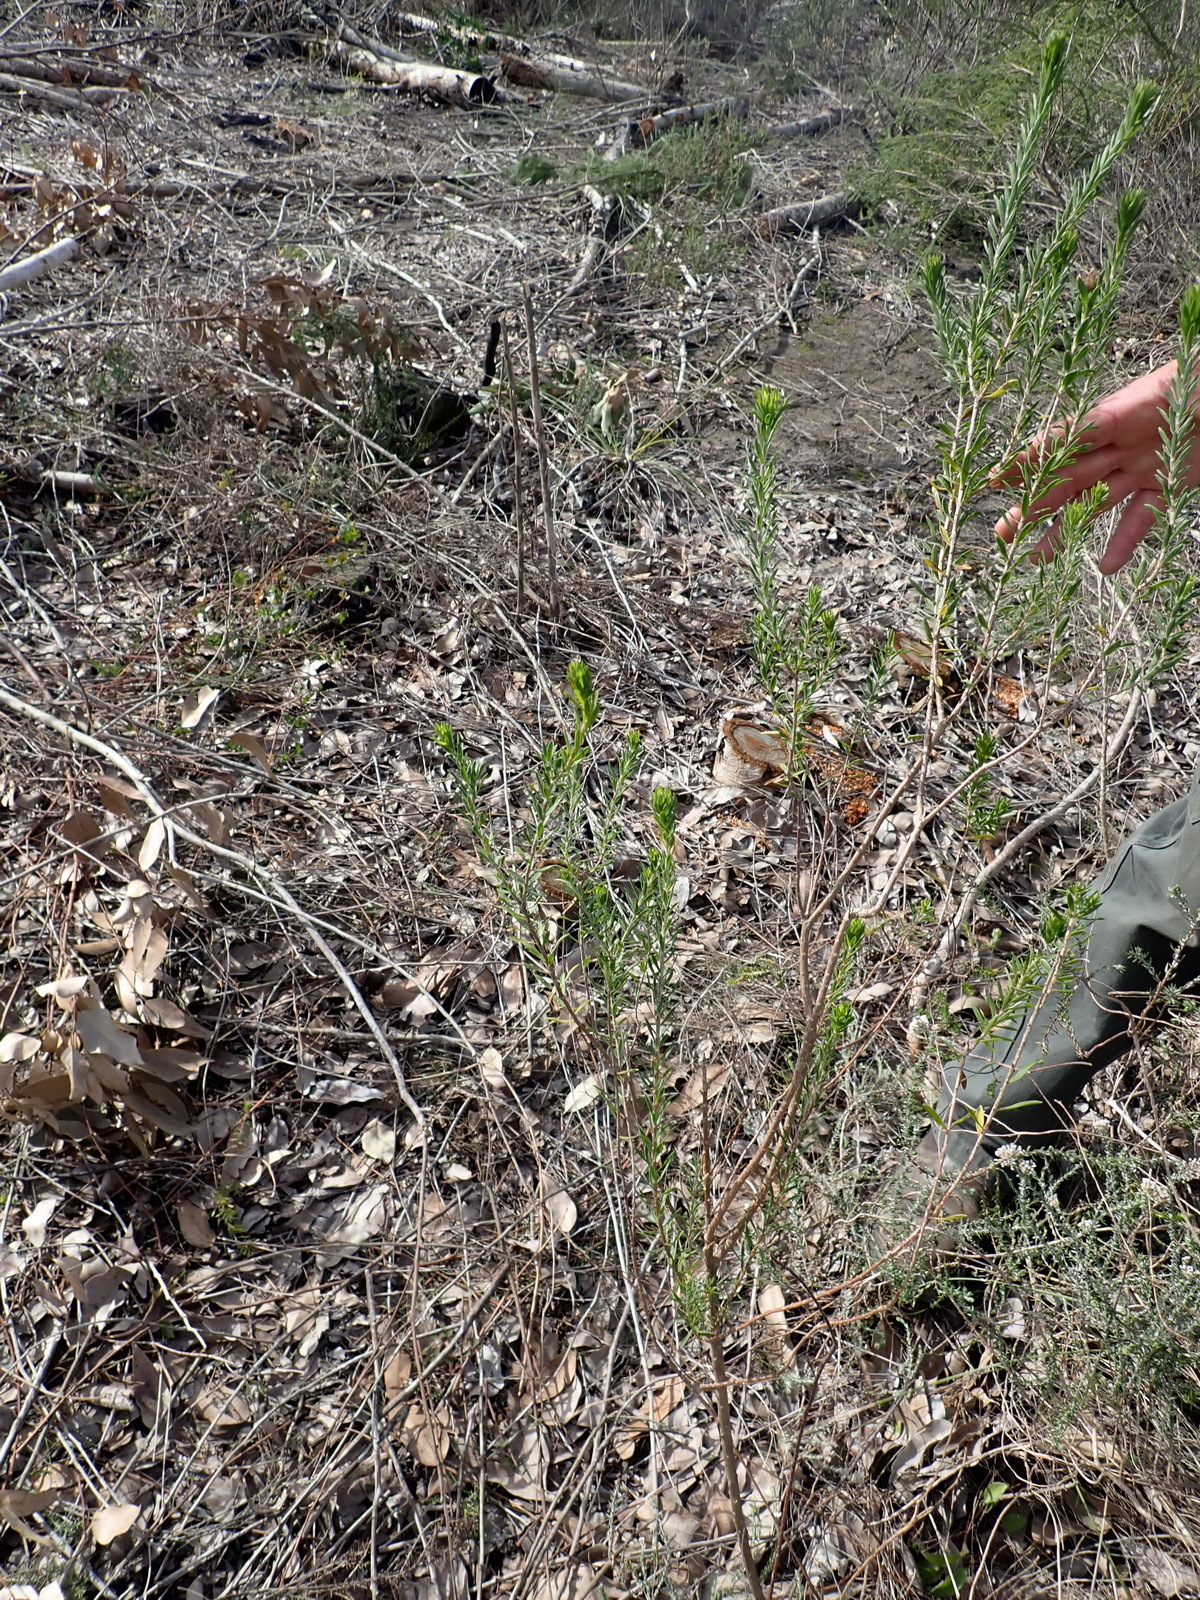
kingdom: Plantae
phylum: Tracheophyta
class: Magnoliopsida
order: Asterales
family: Asteraceae
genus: Oedera
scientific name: Oedera calycina
